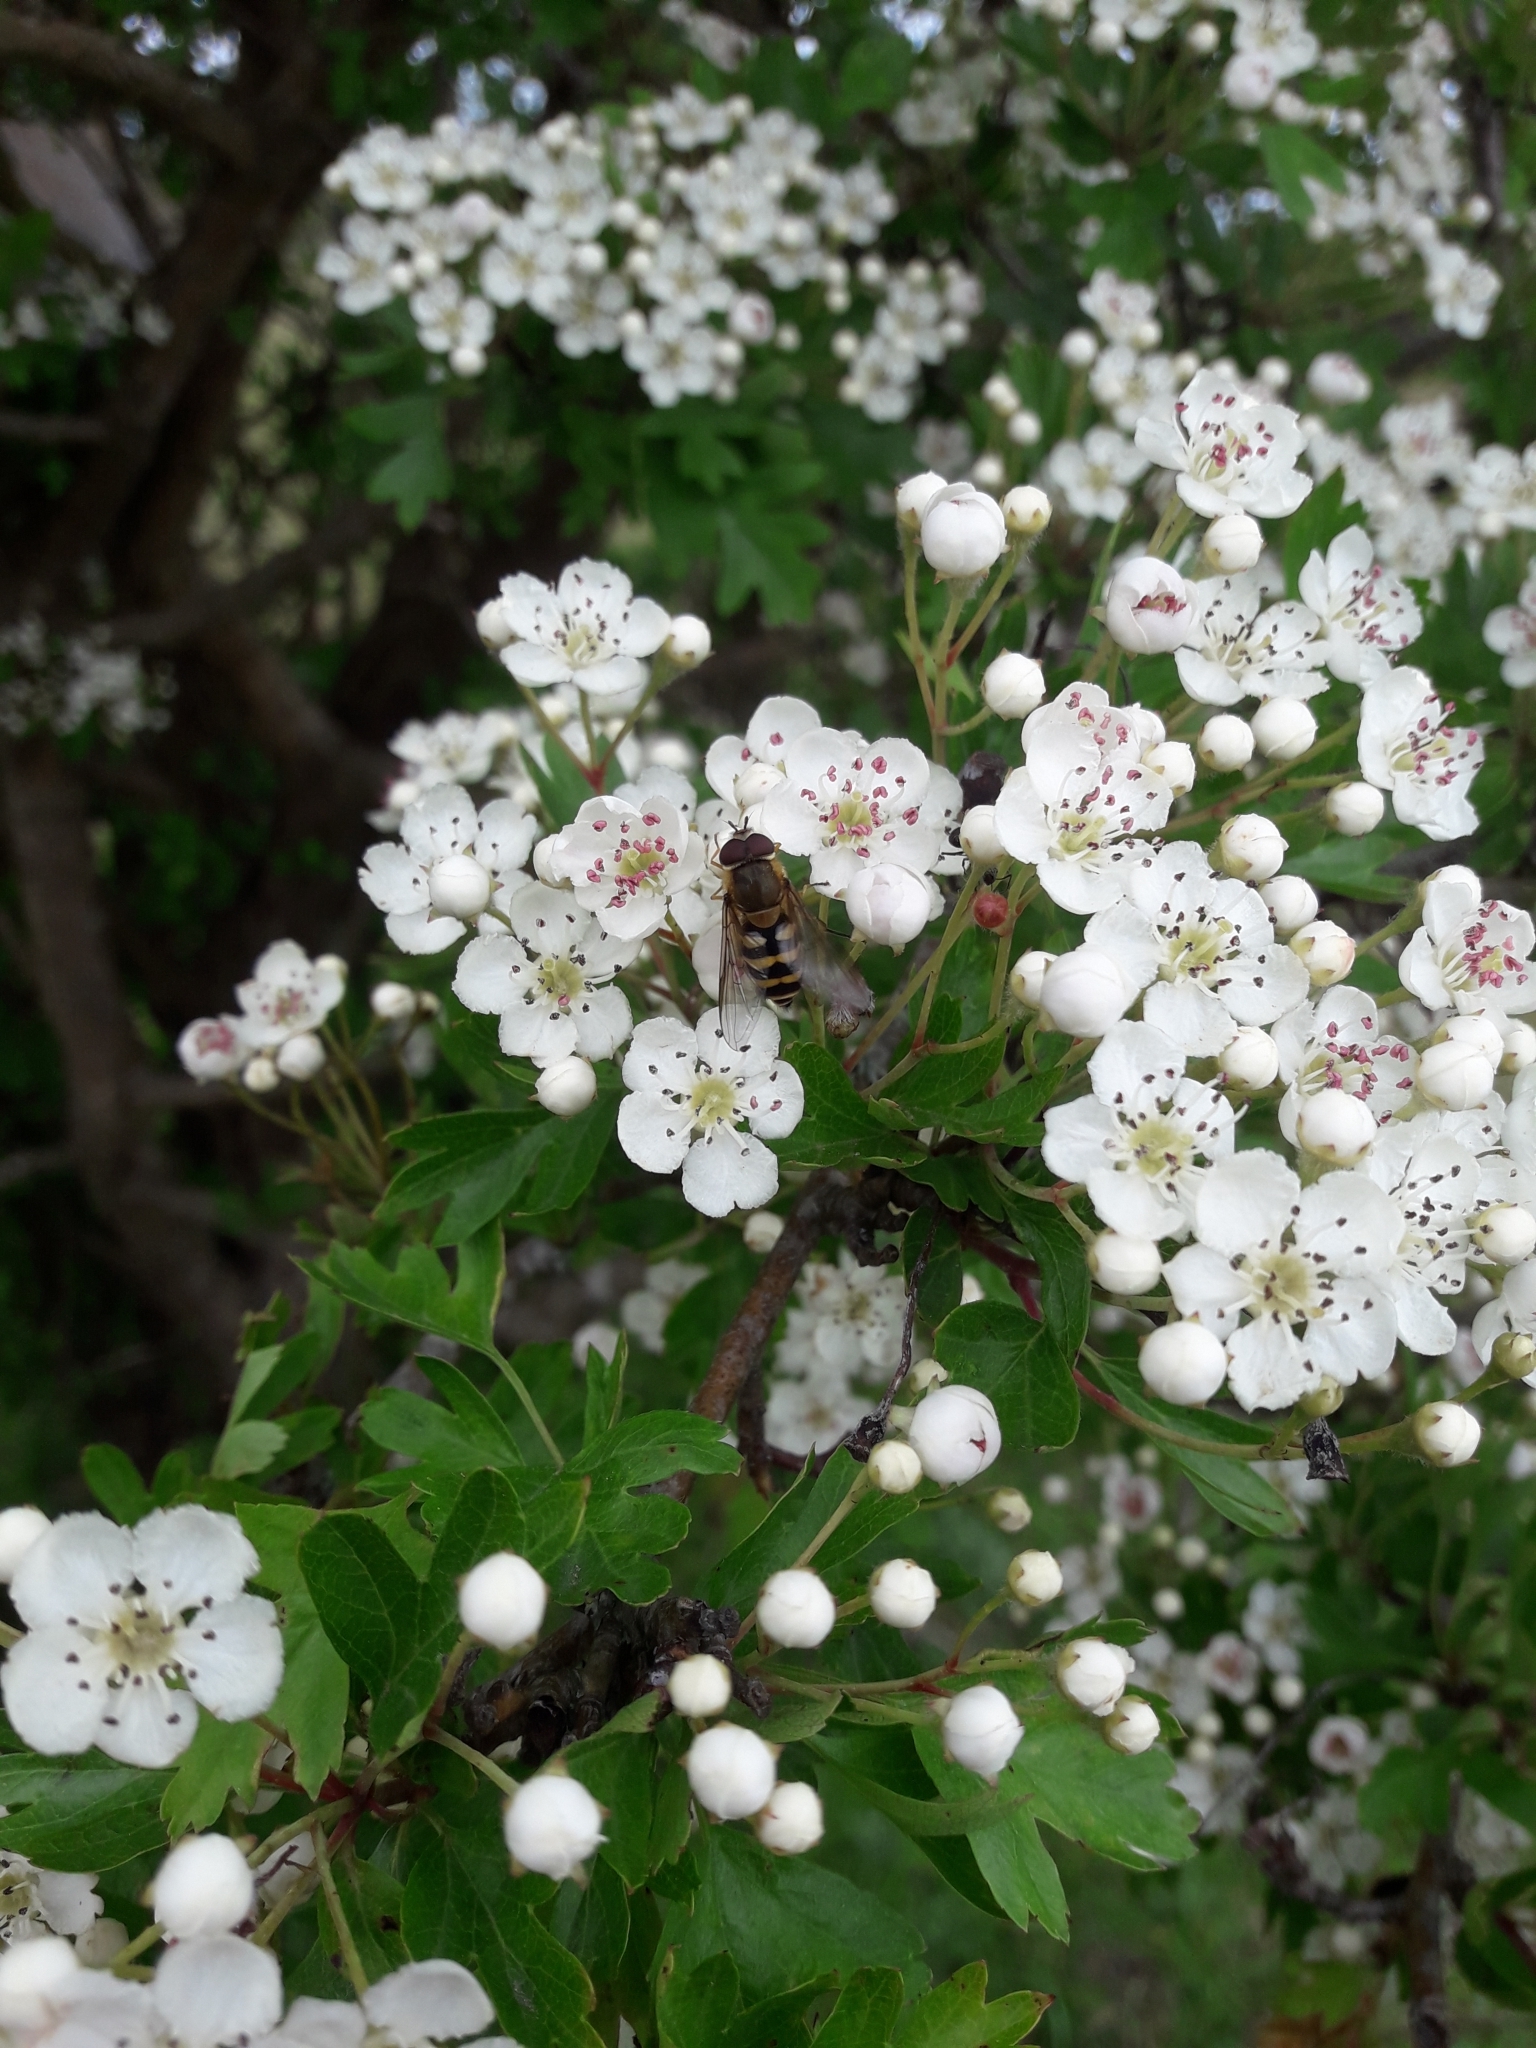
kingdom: Plantae
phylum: Tracheophyta
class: Magnoliopsida
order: Rosales
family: Rosaceae
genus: Crataegus
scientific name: Crataegus monogyna
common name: Hawthorn
